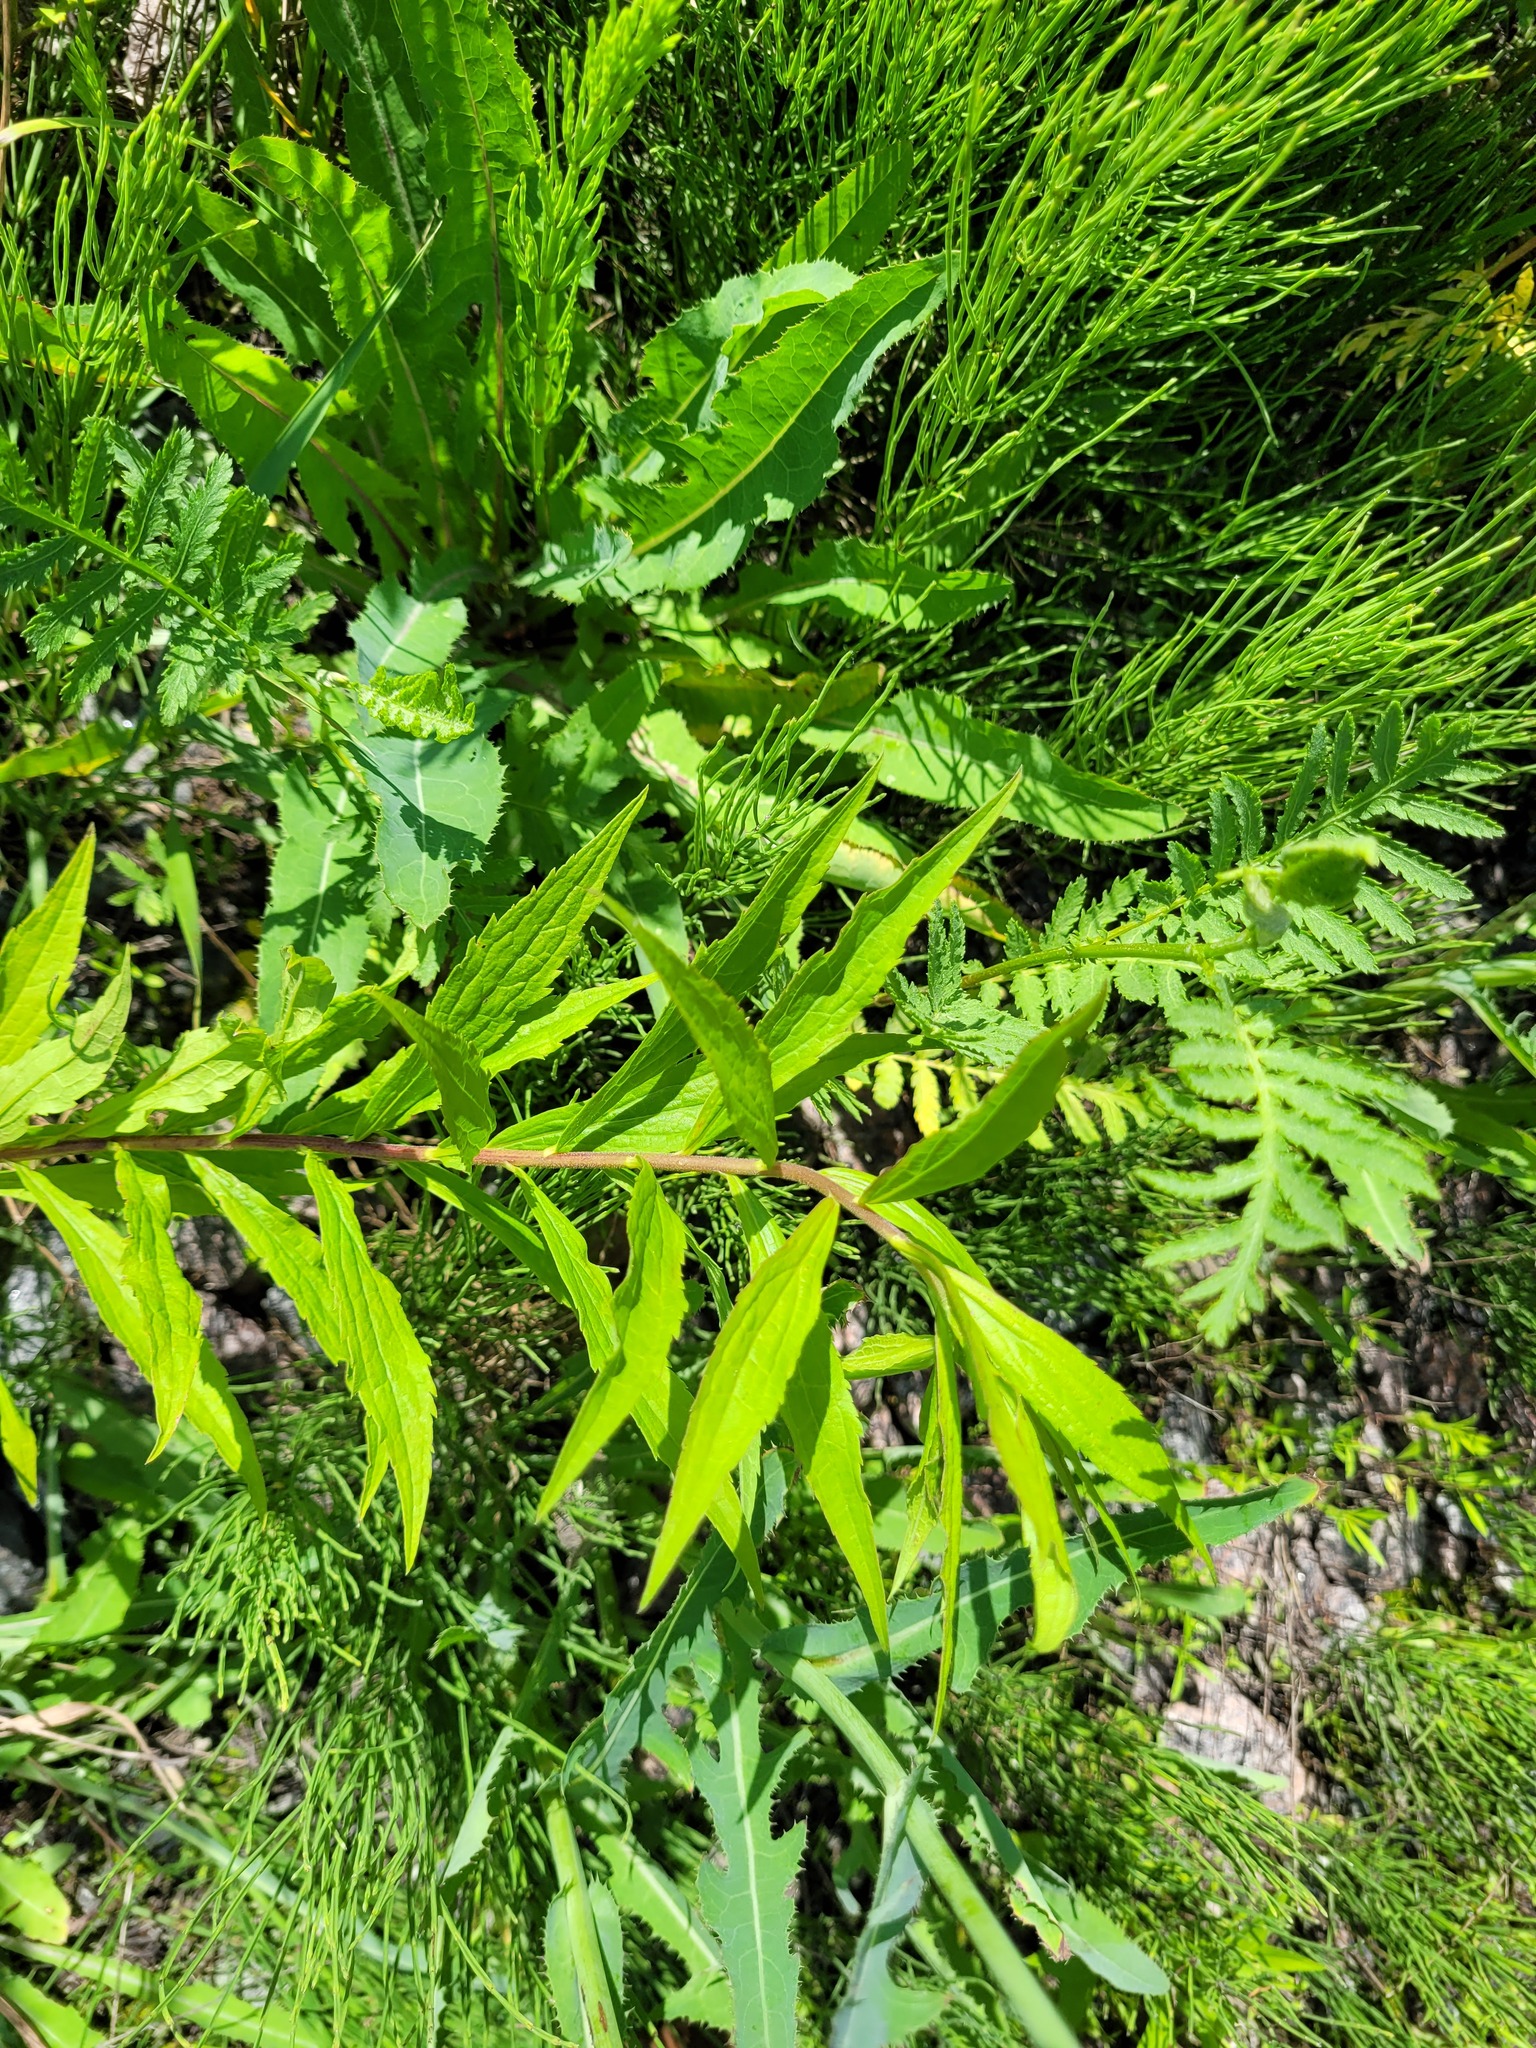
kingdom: Plantae
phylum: Tracheophyta
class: Magnoliopsida
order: Asterales
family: Asteraceae
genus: Solidago
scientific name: Solidago canadensis
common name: Canada goldenrod
